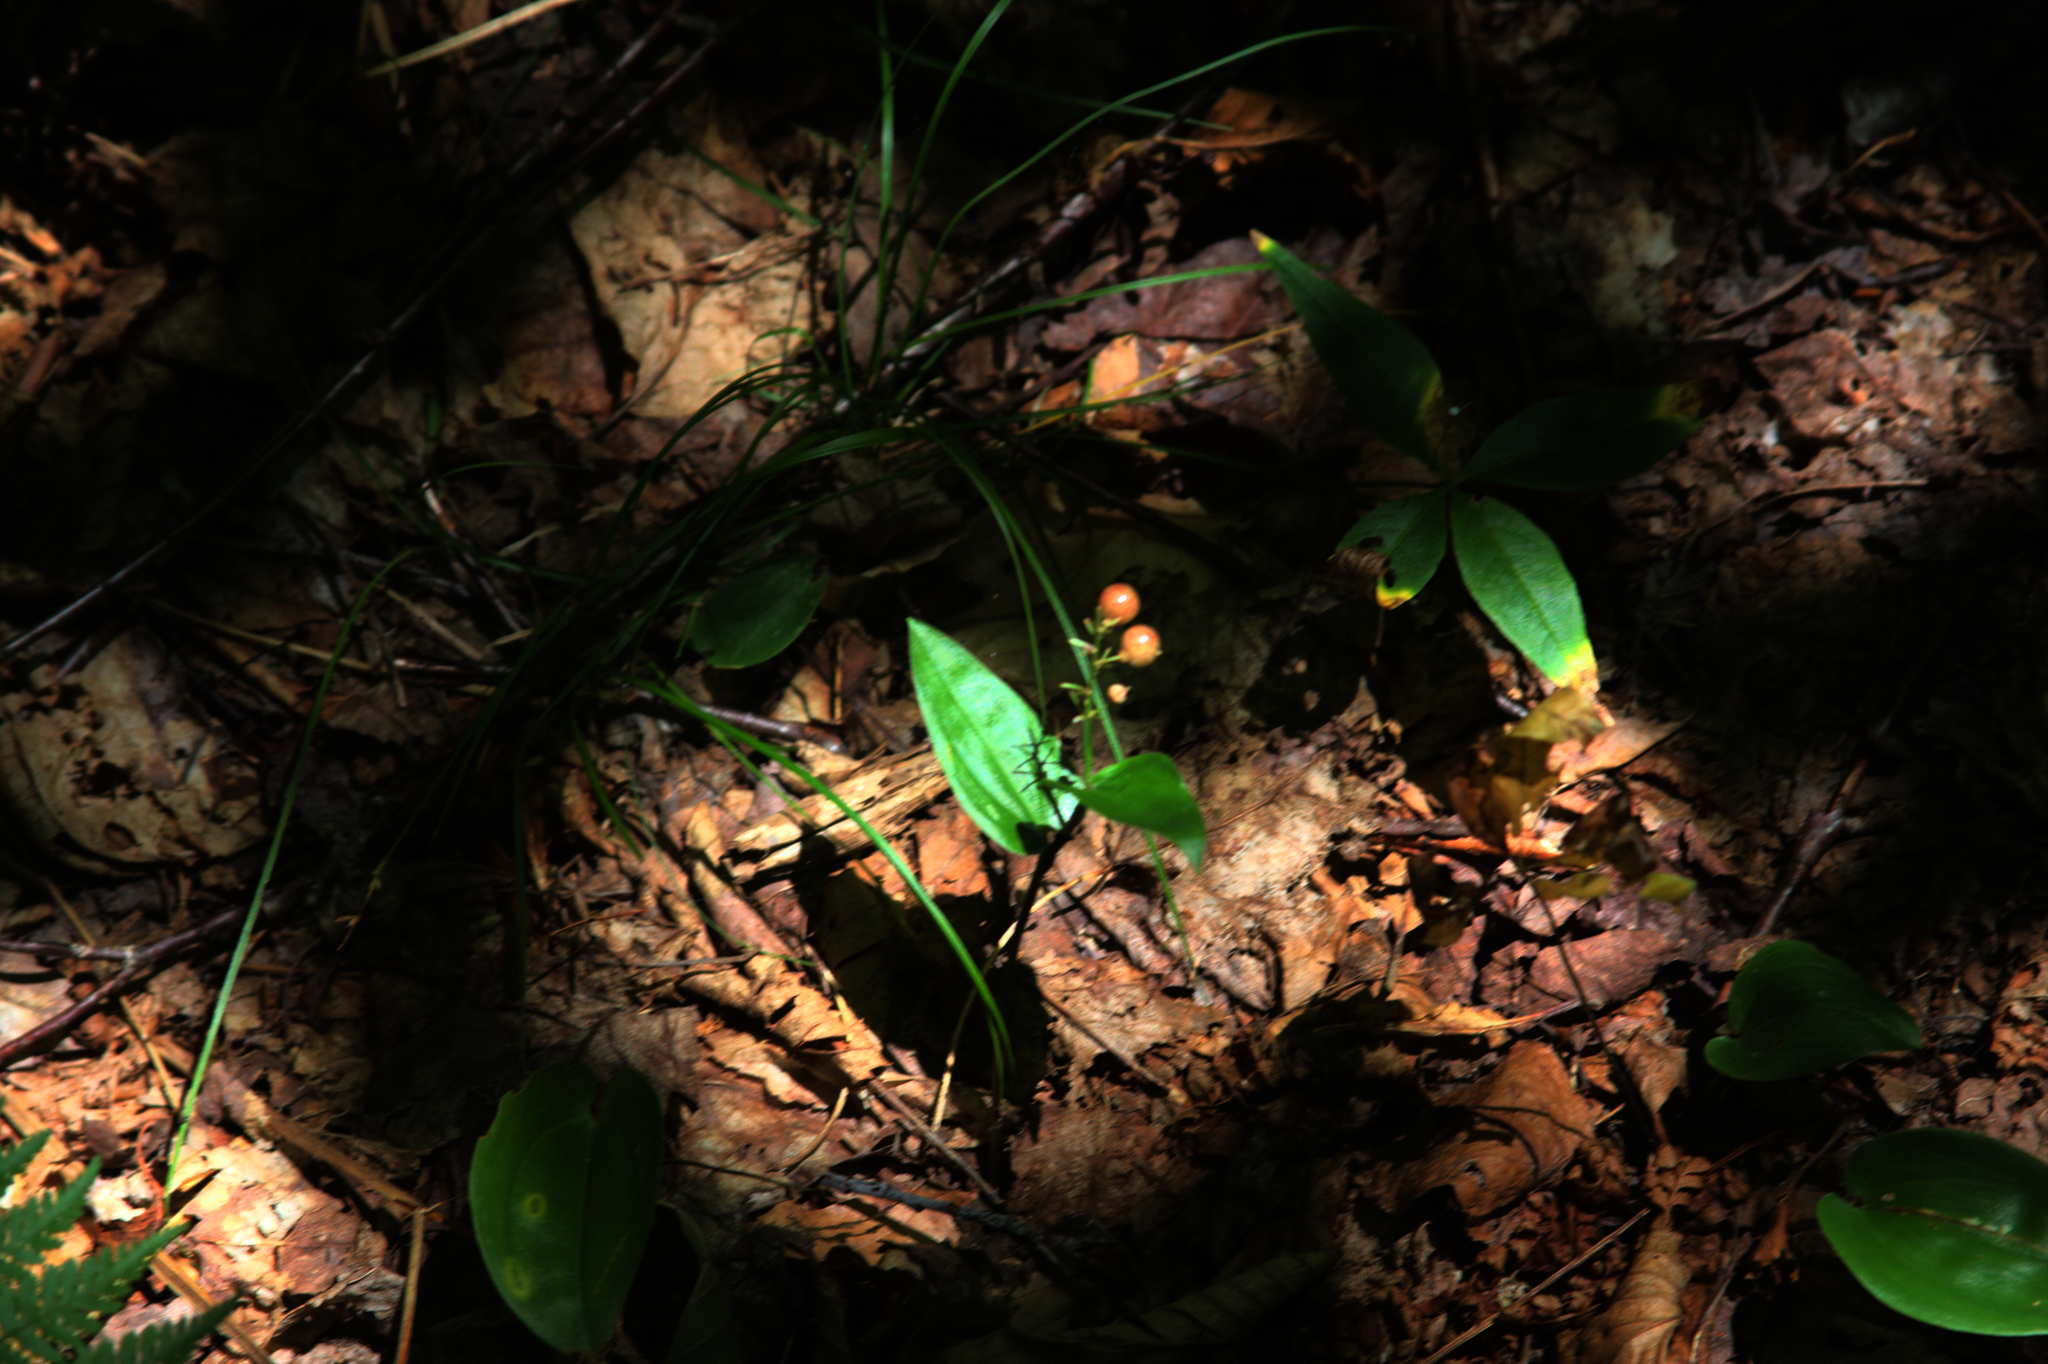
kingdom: Plantae
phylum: Tracheophyta
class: Liliopsida
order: Asparagales
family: Asparagaceae
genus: Maianthemum
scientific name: Maianthemum canadense
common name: False lily-of-the-valley
